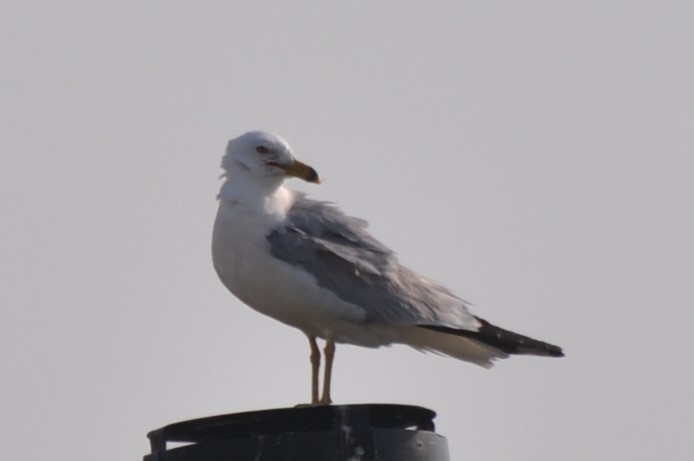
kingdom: Animalia
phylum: Chordata
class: Aves
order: Charadriiformes
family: Laridae
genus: Larus
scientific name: Larus delawarensis
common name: Ring-billed gull
